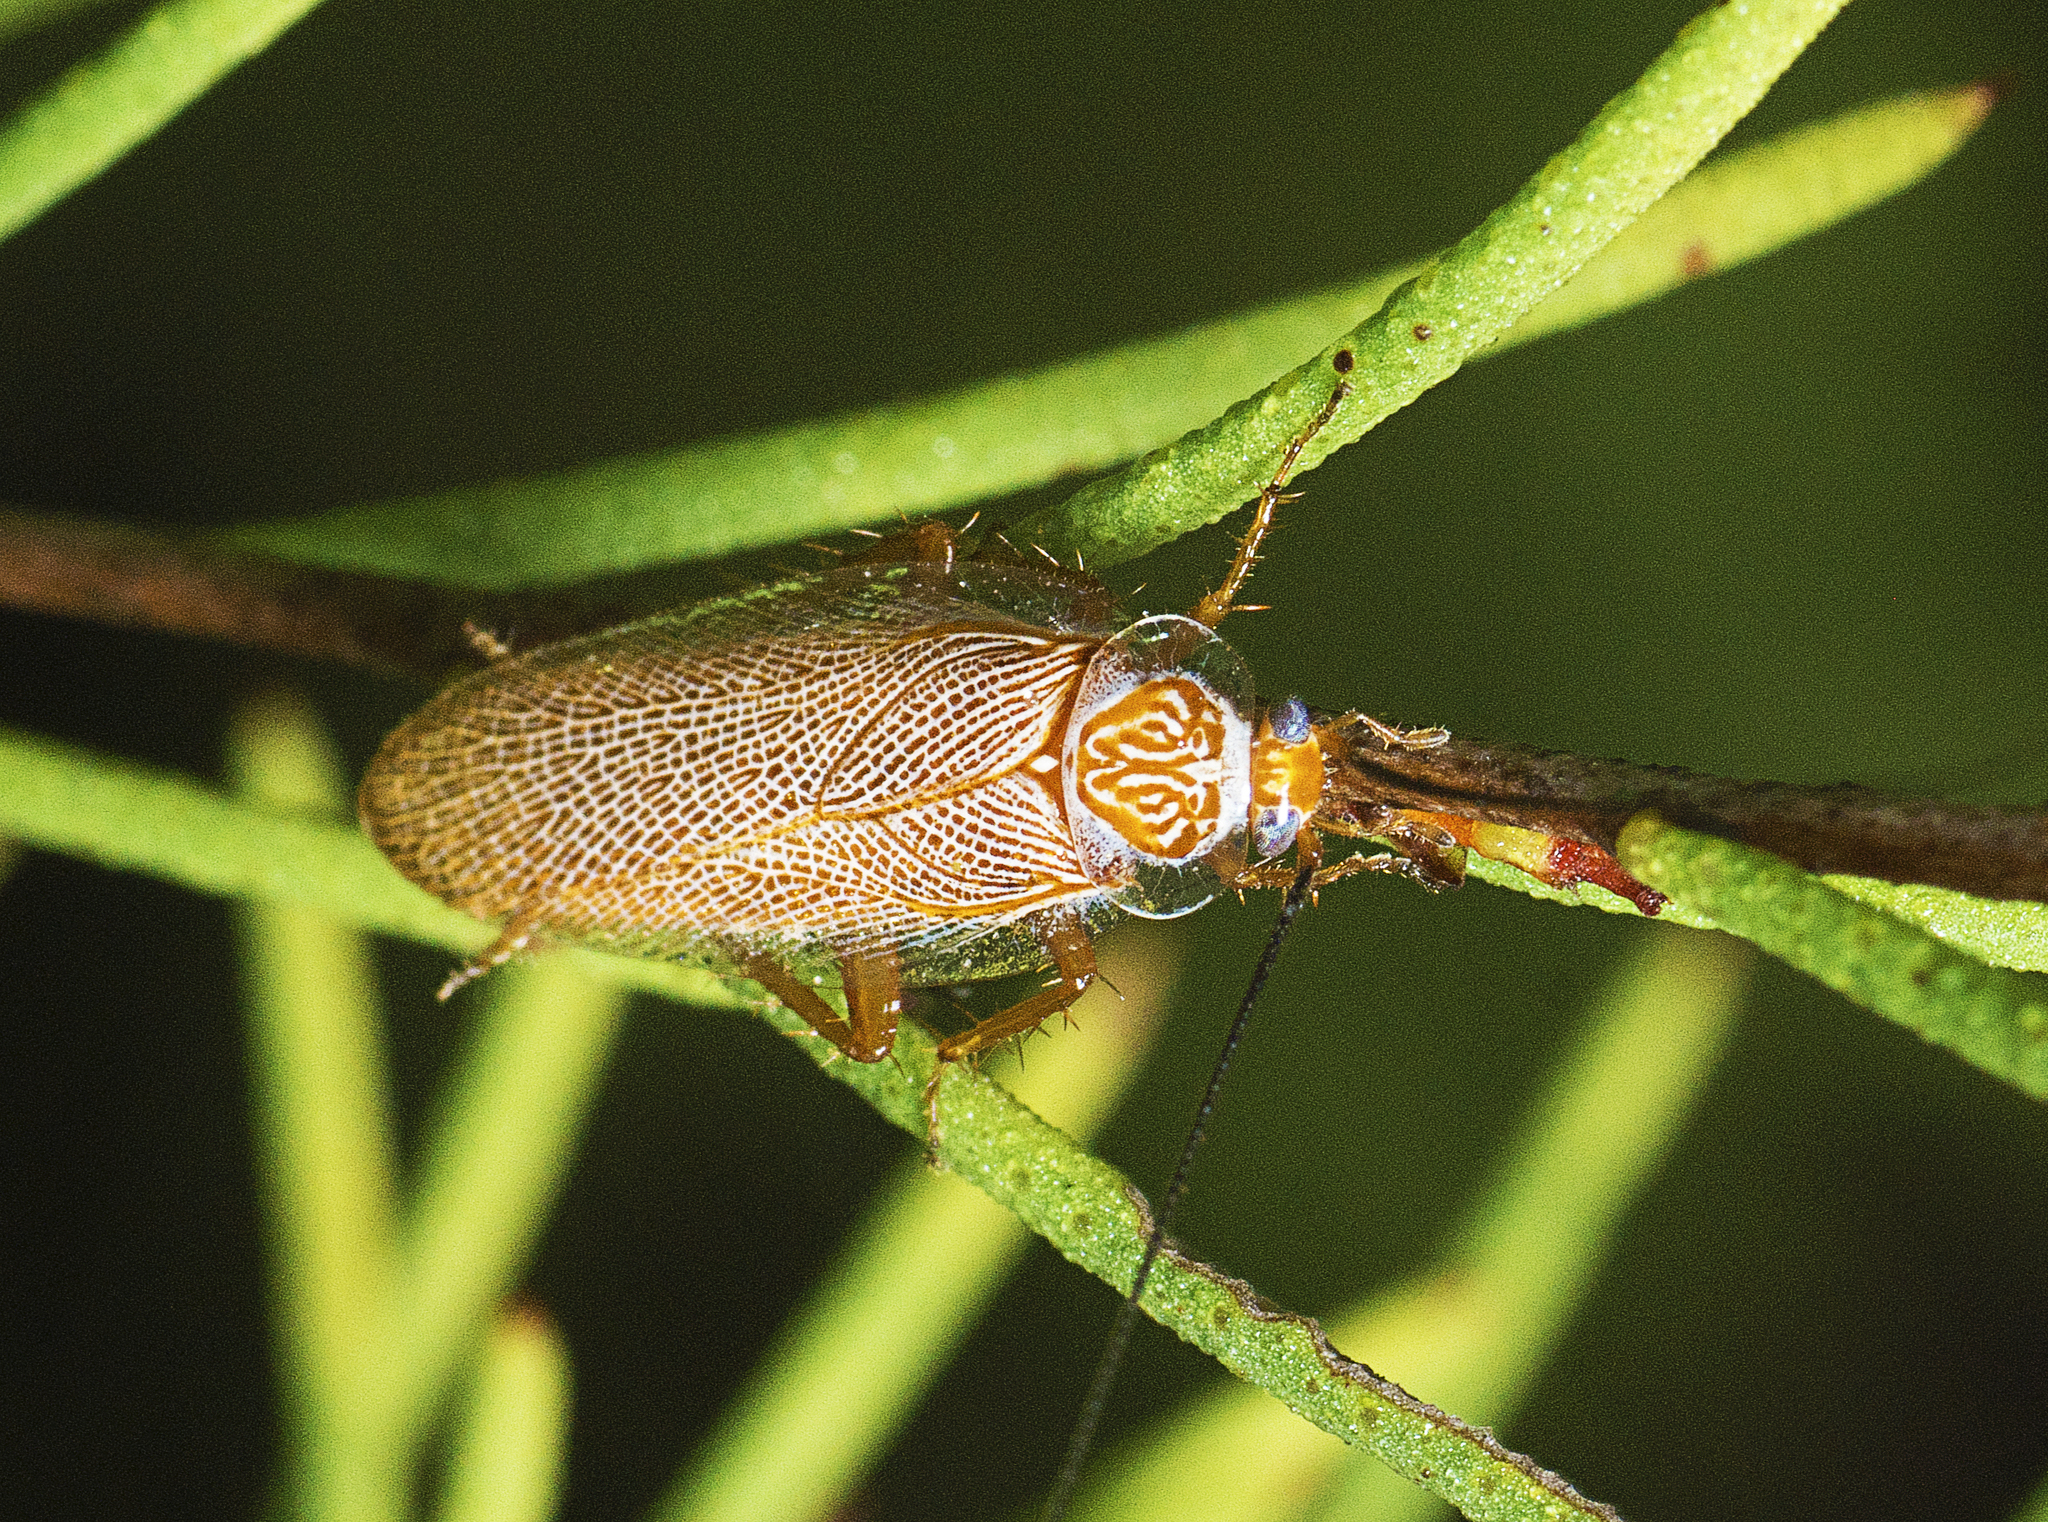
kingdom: Animalia
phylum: Arthropoda
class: Insecta
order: Blattodea
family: Ectobiidae
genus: Balta
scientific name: Balta verticalis
